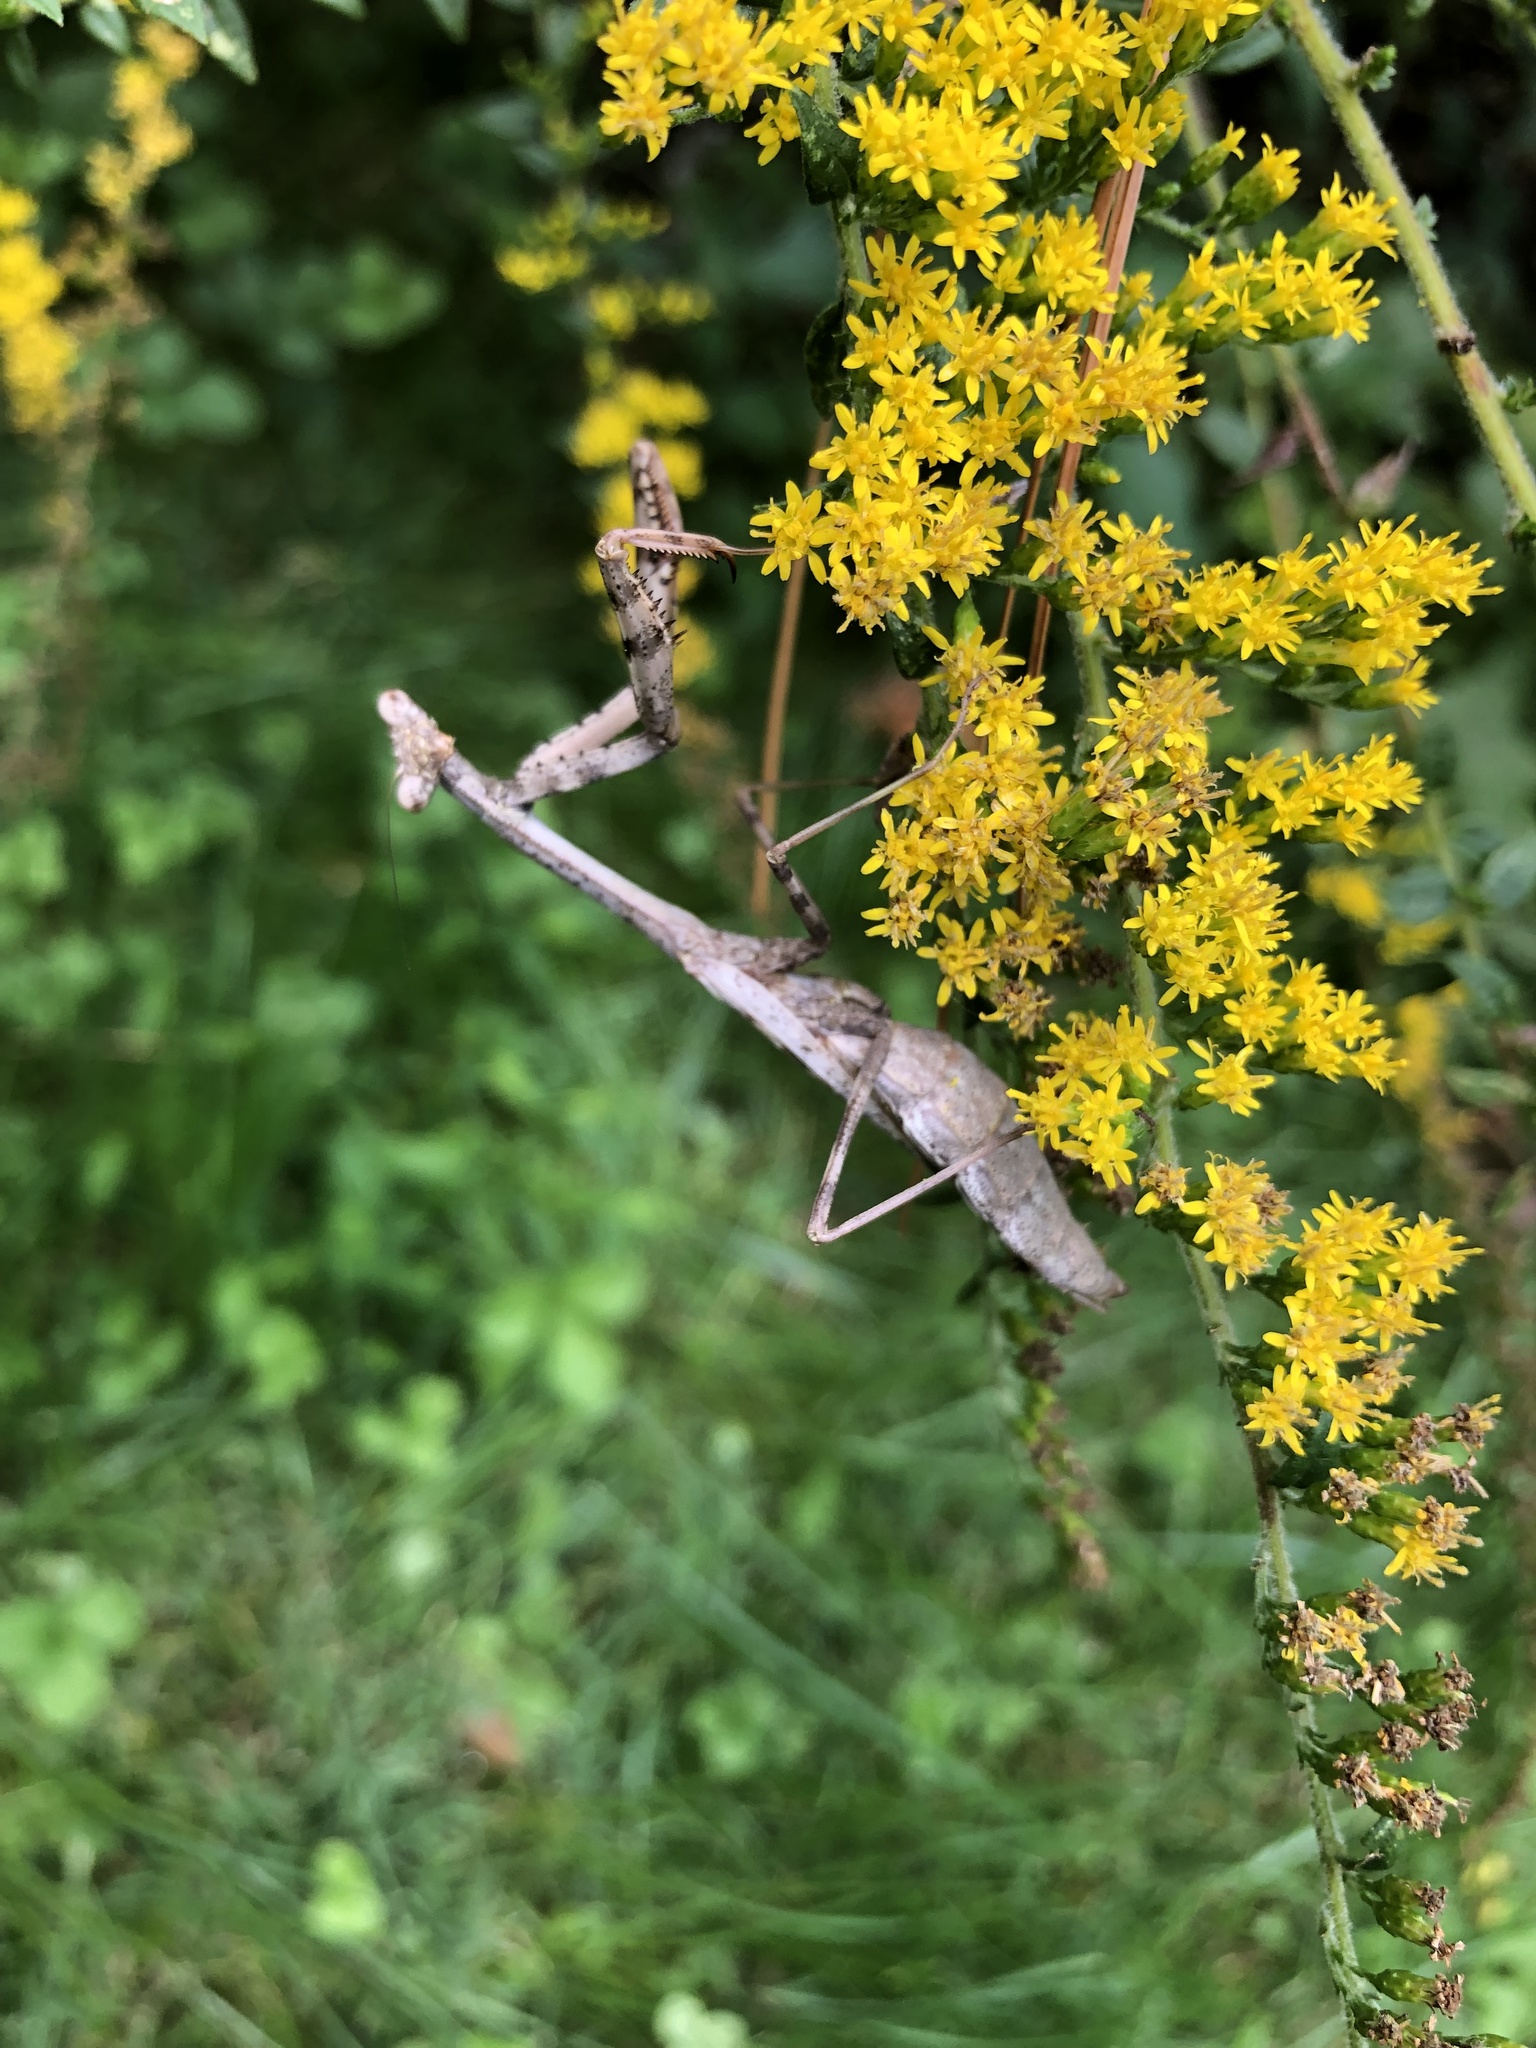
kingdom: Animalia
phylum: Arthropoda
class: Insecta
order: Mantodea
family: Mantidae
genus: Stagmomantis
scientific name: Stagmomantis carolina
